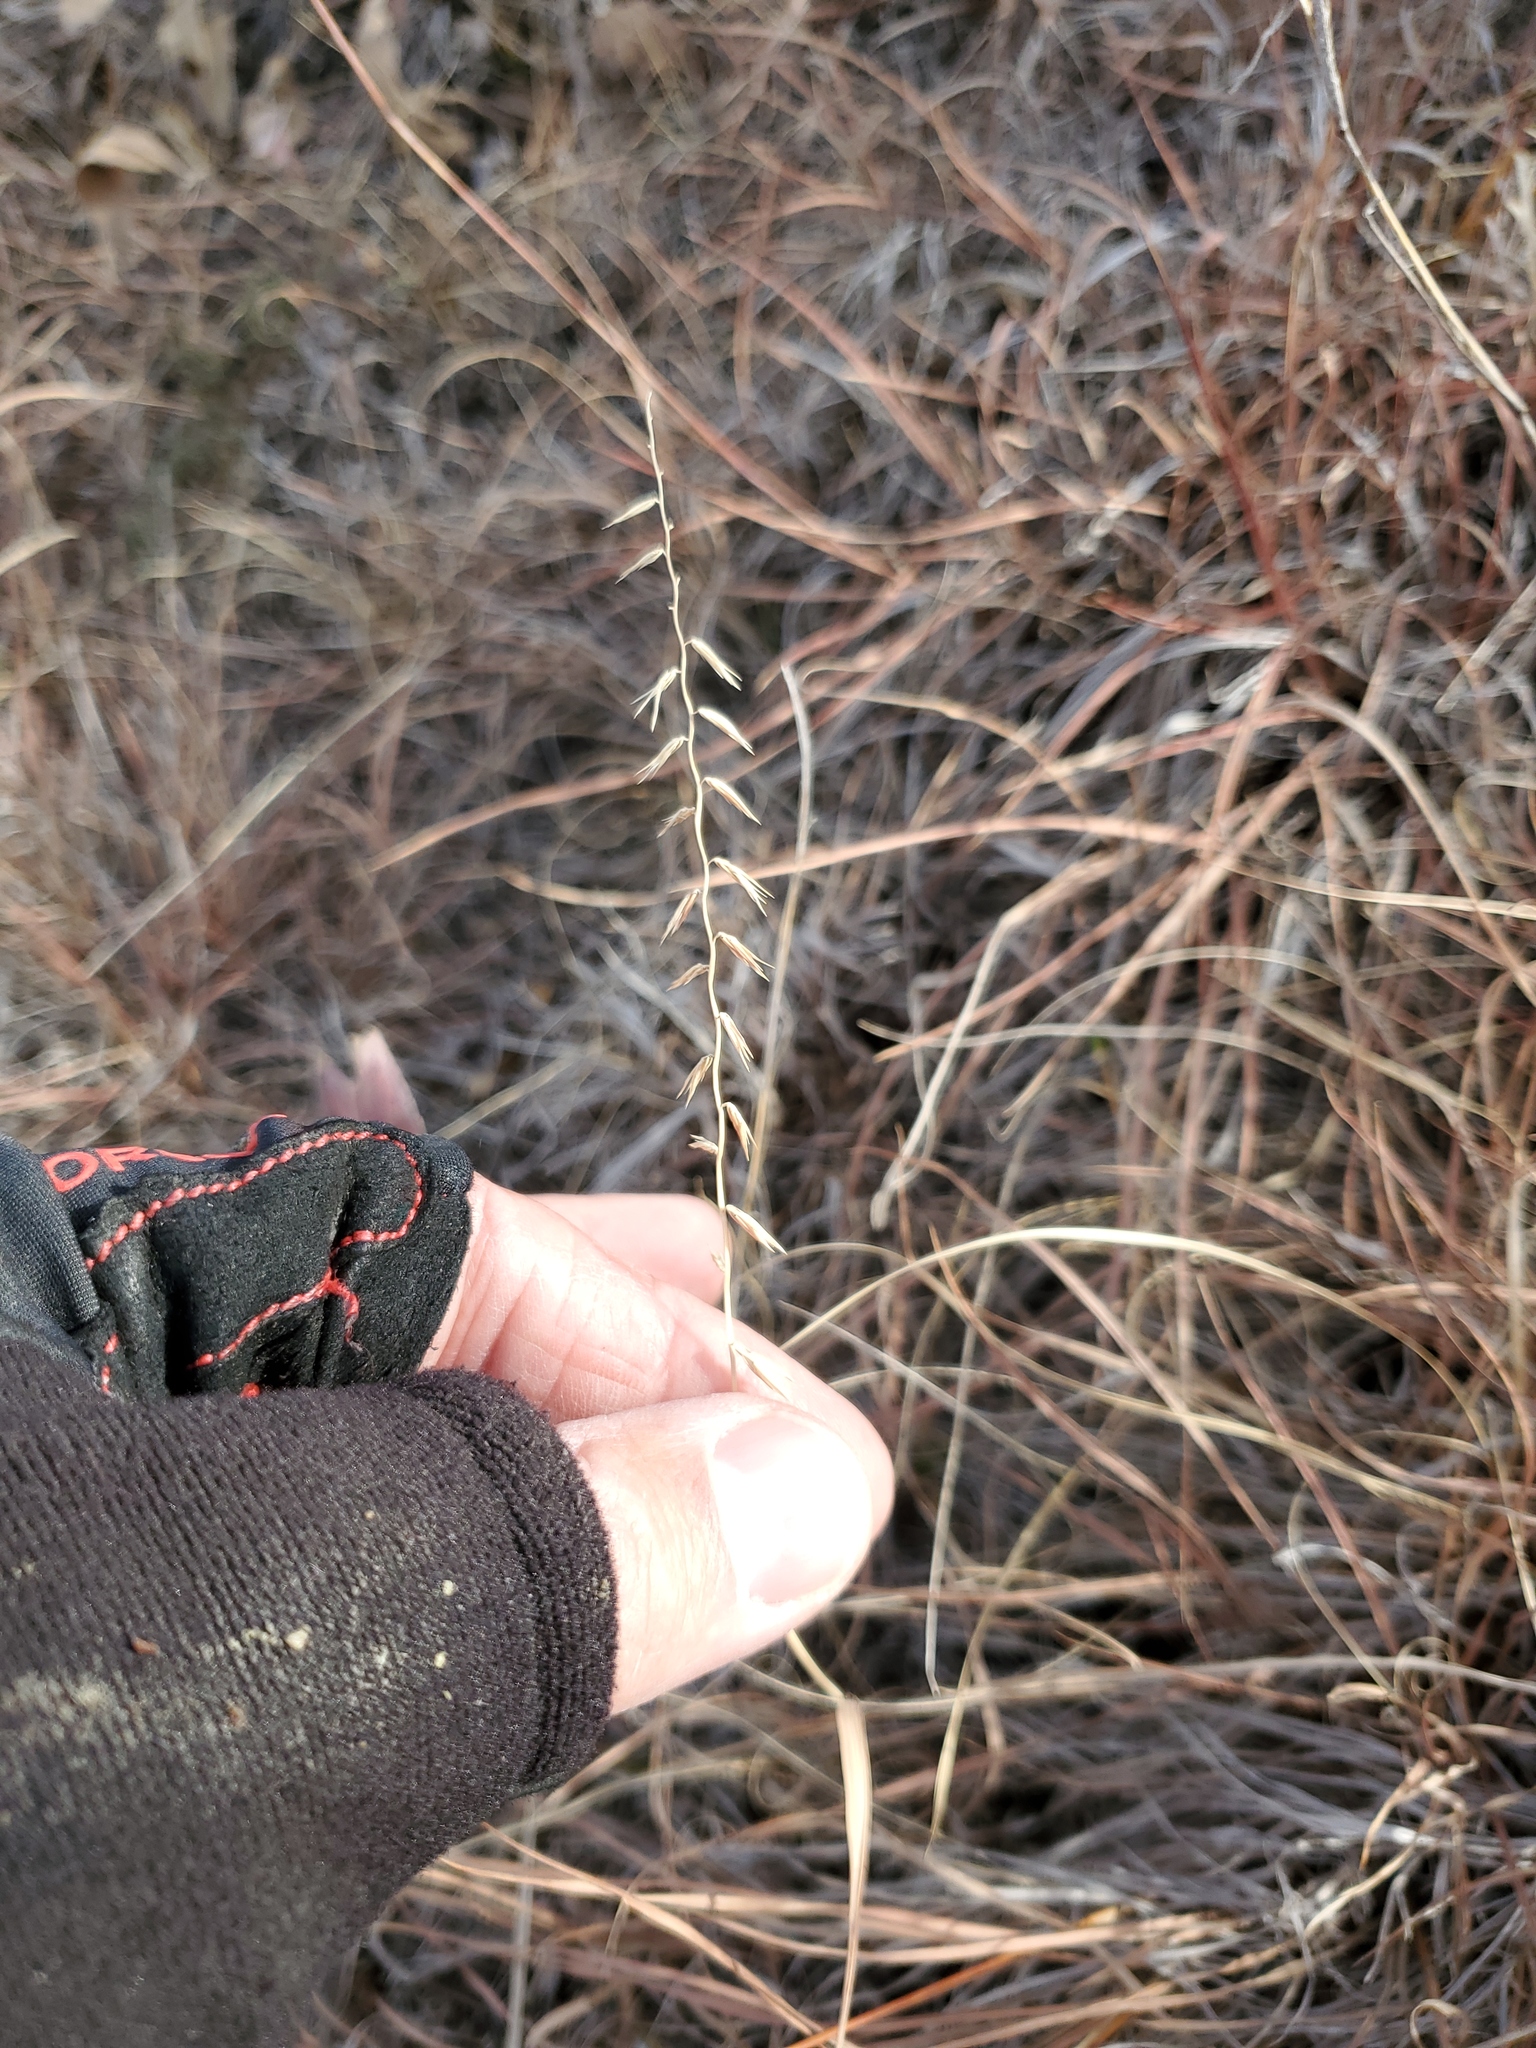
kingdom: Plantae
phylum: Tracheophyta
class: Liliopsida
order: Poales
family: Poaceae
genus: Bouteloua
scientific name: Bouteloua curtipendula
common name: Side-oats grama
